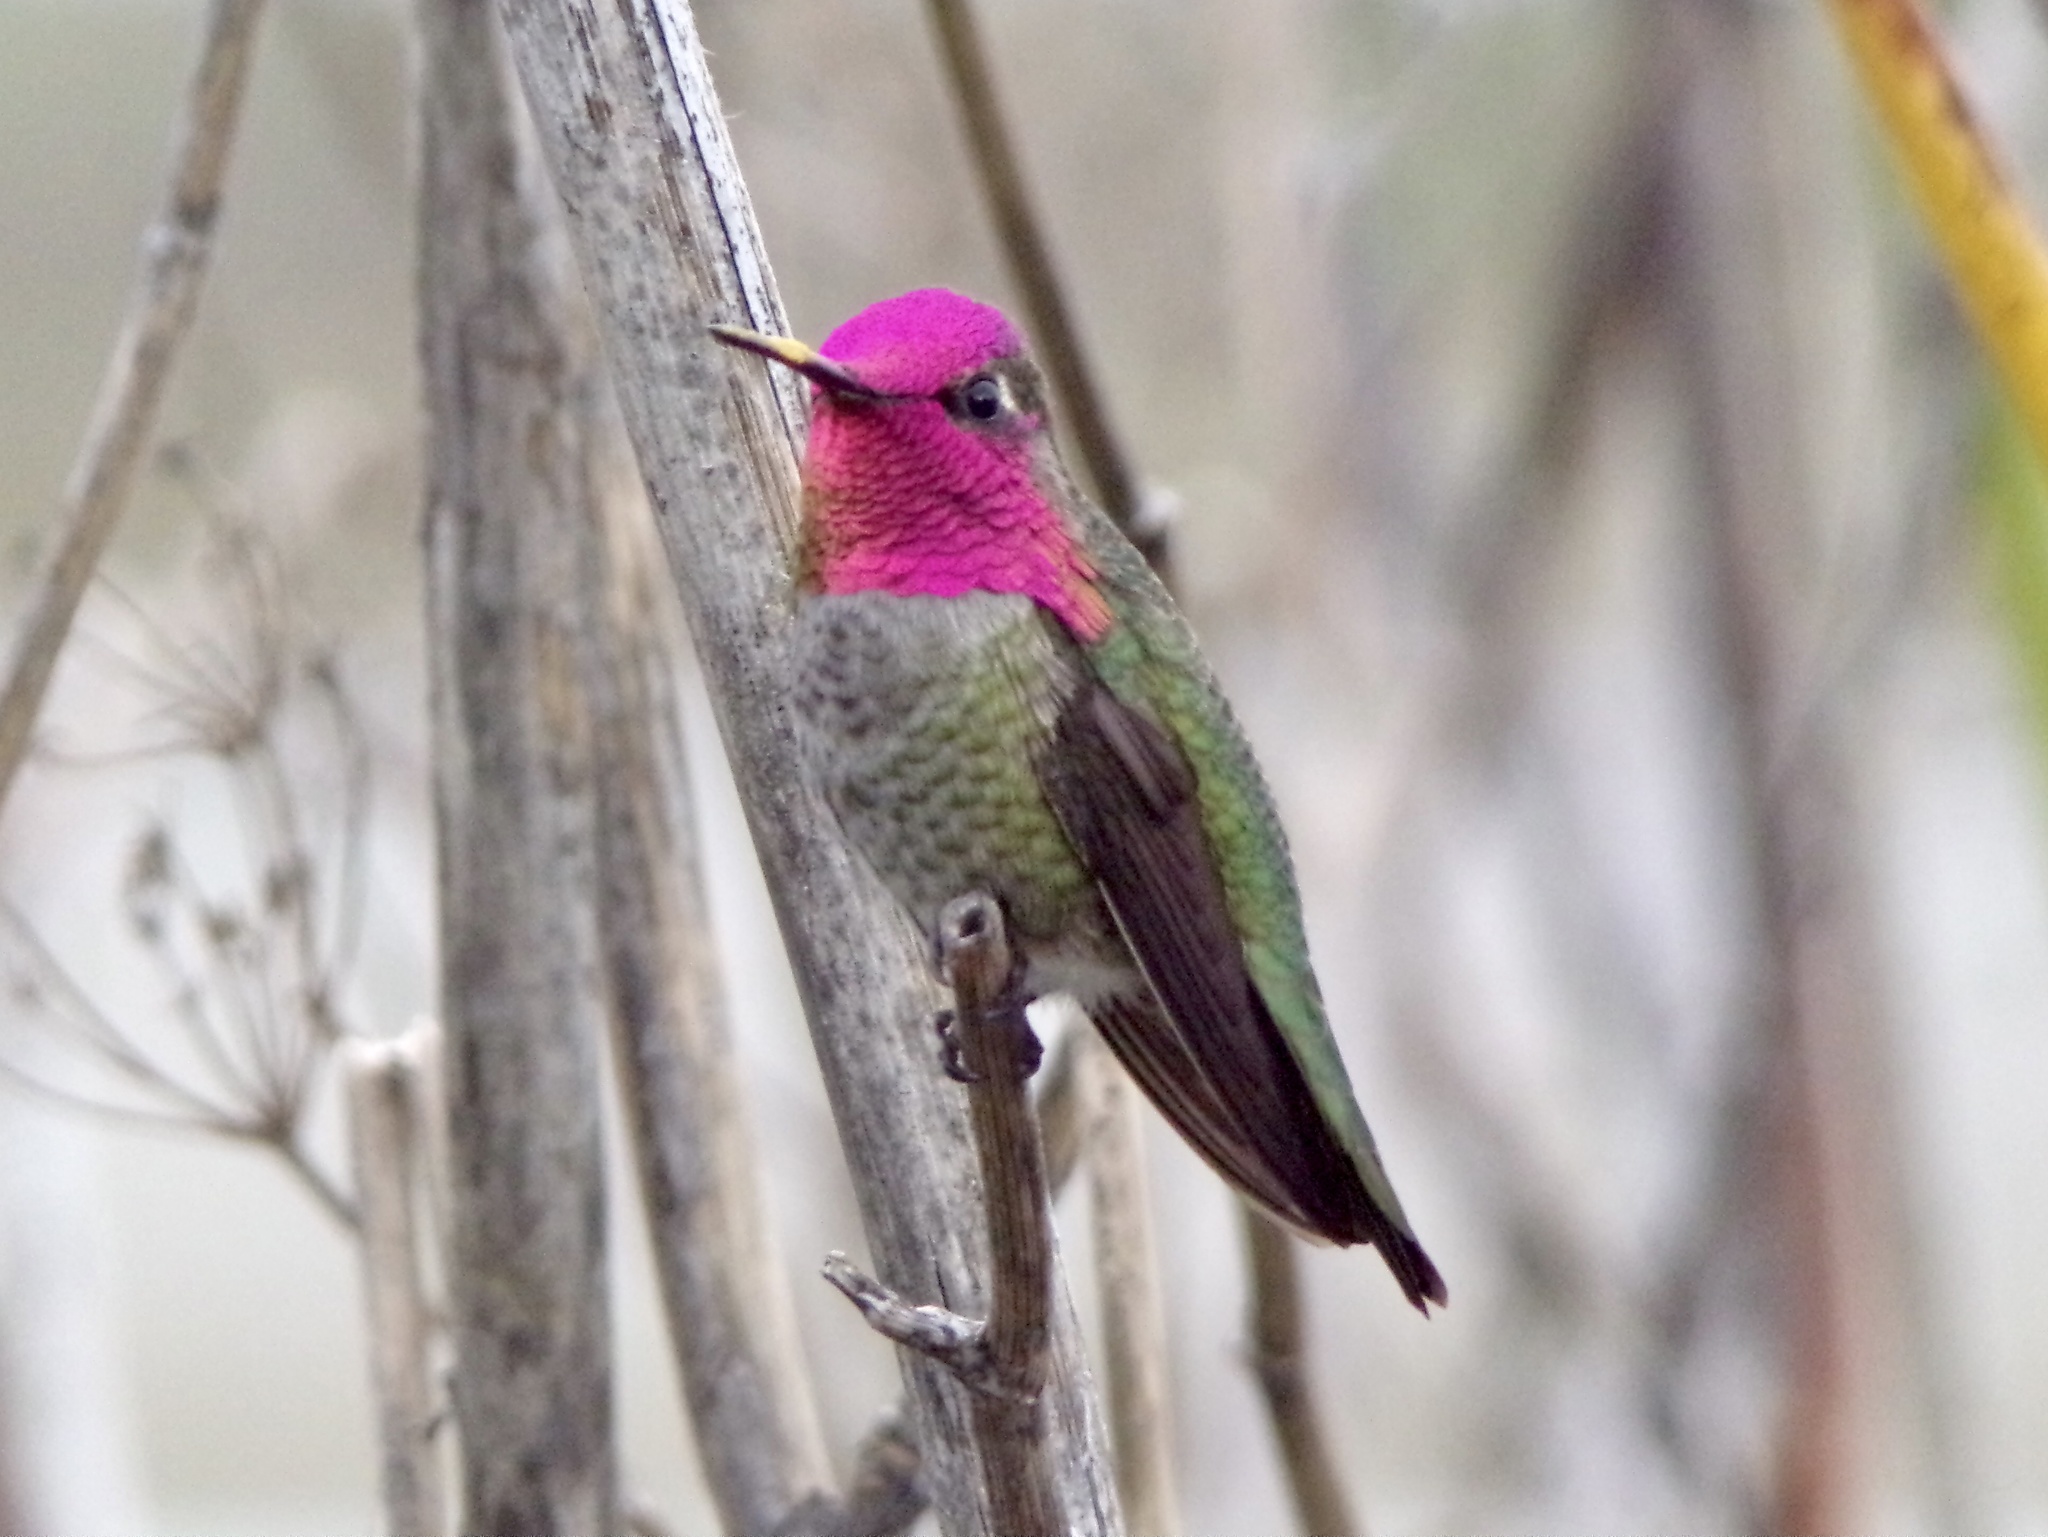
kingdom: Animalia
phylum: Chordata
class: Aves
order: Apodiformes
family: Trochilidae
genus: Calypte
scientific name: Calypte anna
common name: Anna's hummingbird
